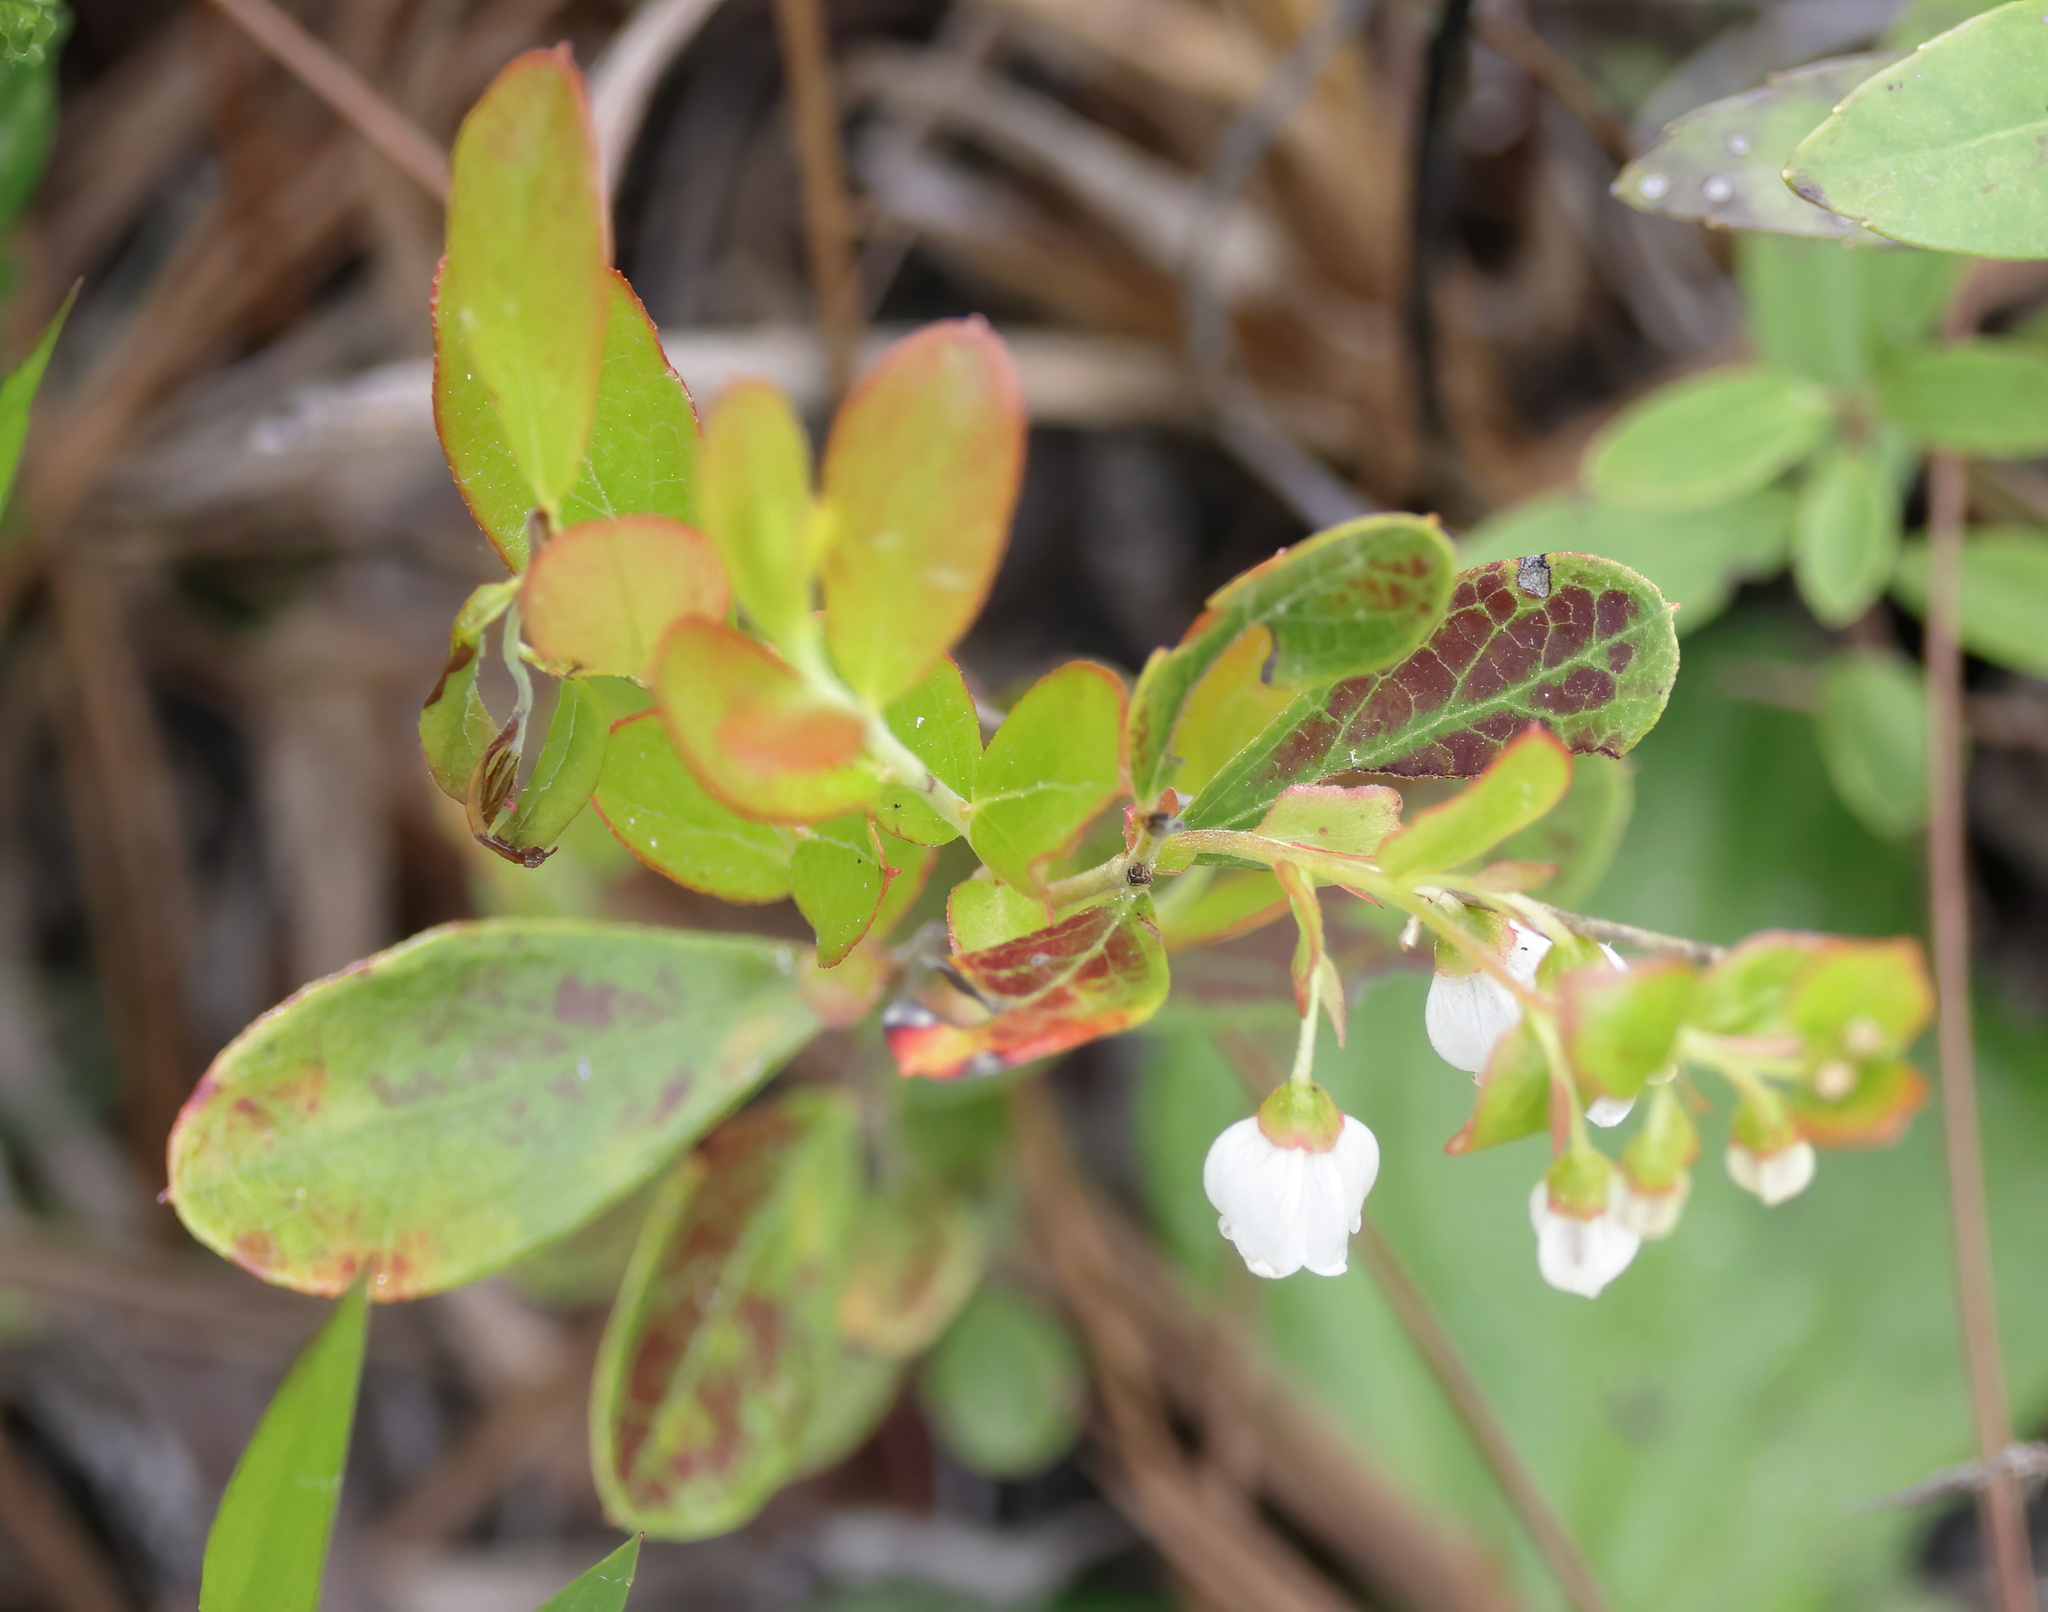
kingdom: Plantae
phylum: Tracheophyta
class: Magnoliopsida
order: Ericales
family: Ericaceae
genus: Gaylussacia
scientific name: Gaylussacia dumosa
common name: Dwarf huckleberry
